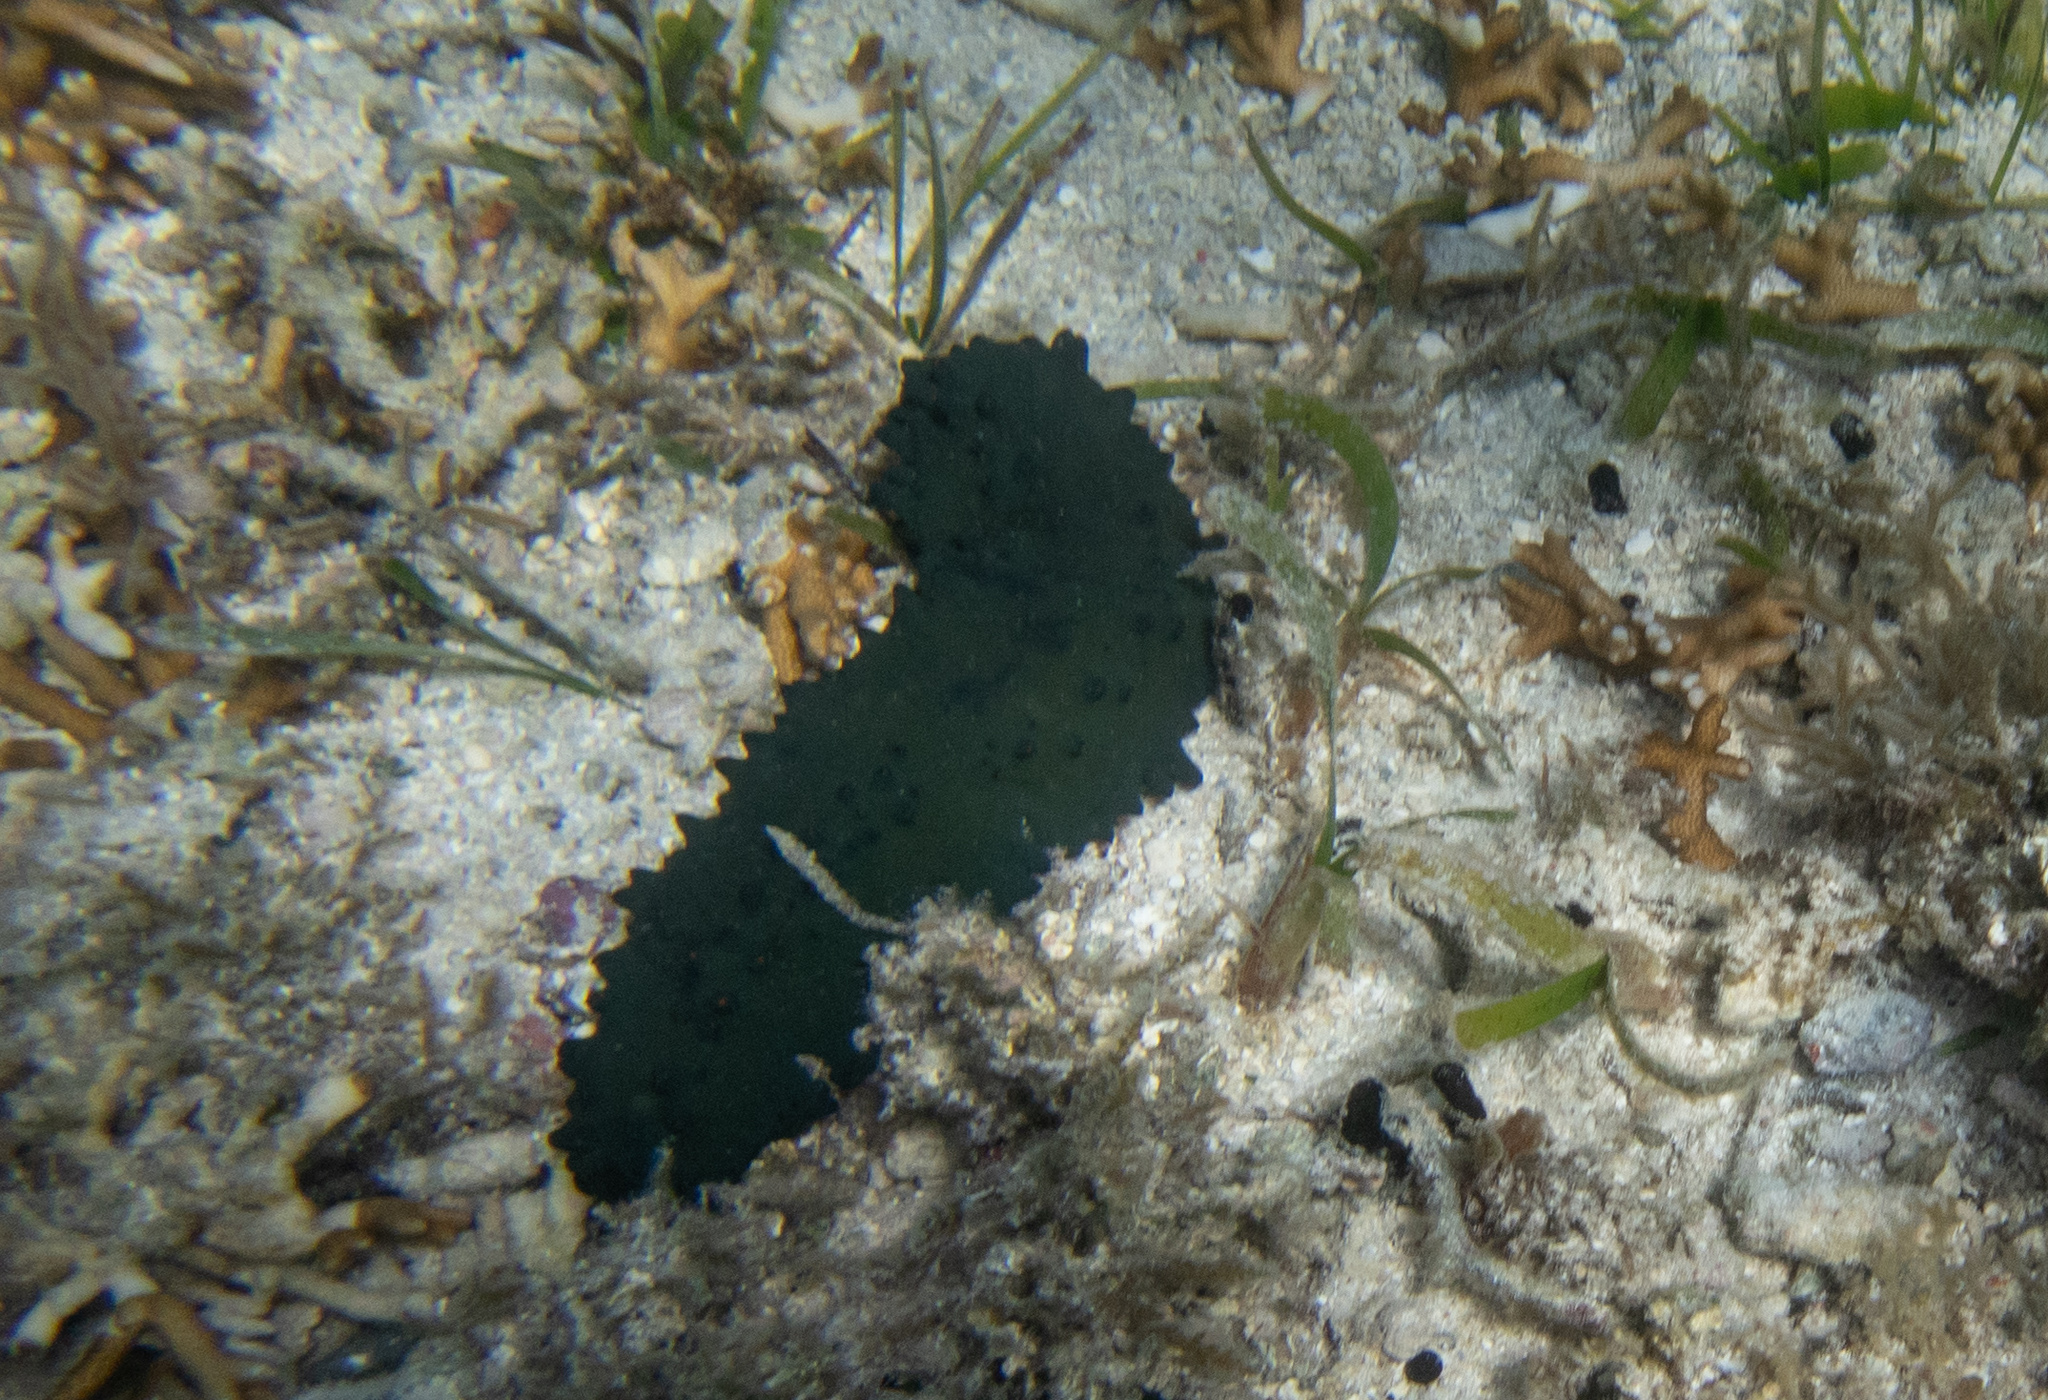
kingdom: Animalia
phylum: Echinodermata
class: Holothuroidea
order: Synallactida
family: Stichopodidae
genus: Stichopus
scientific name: Stichopus chloronotus
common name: Greenfish
